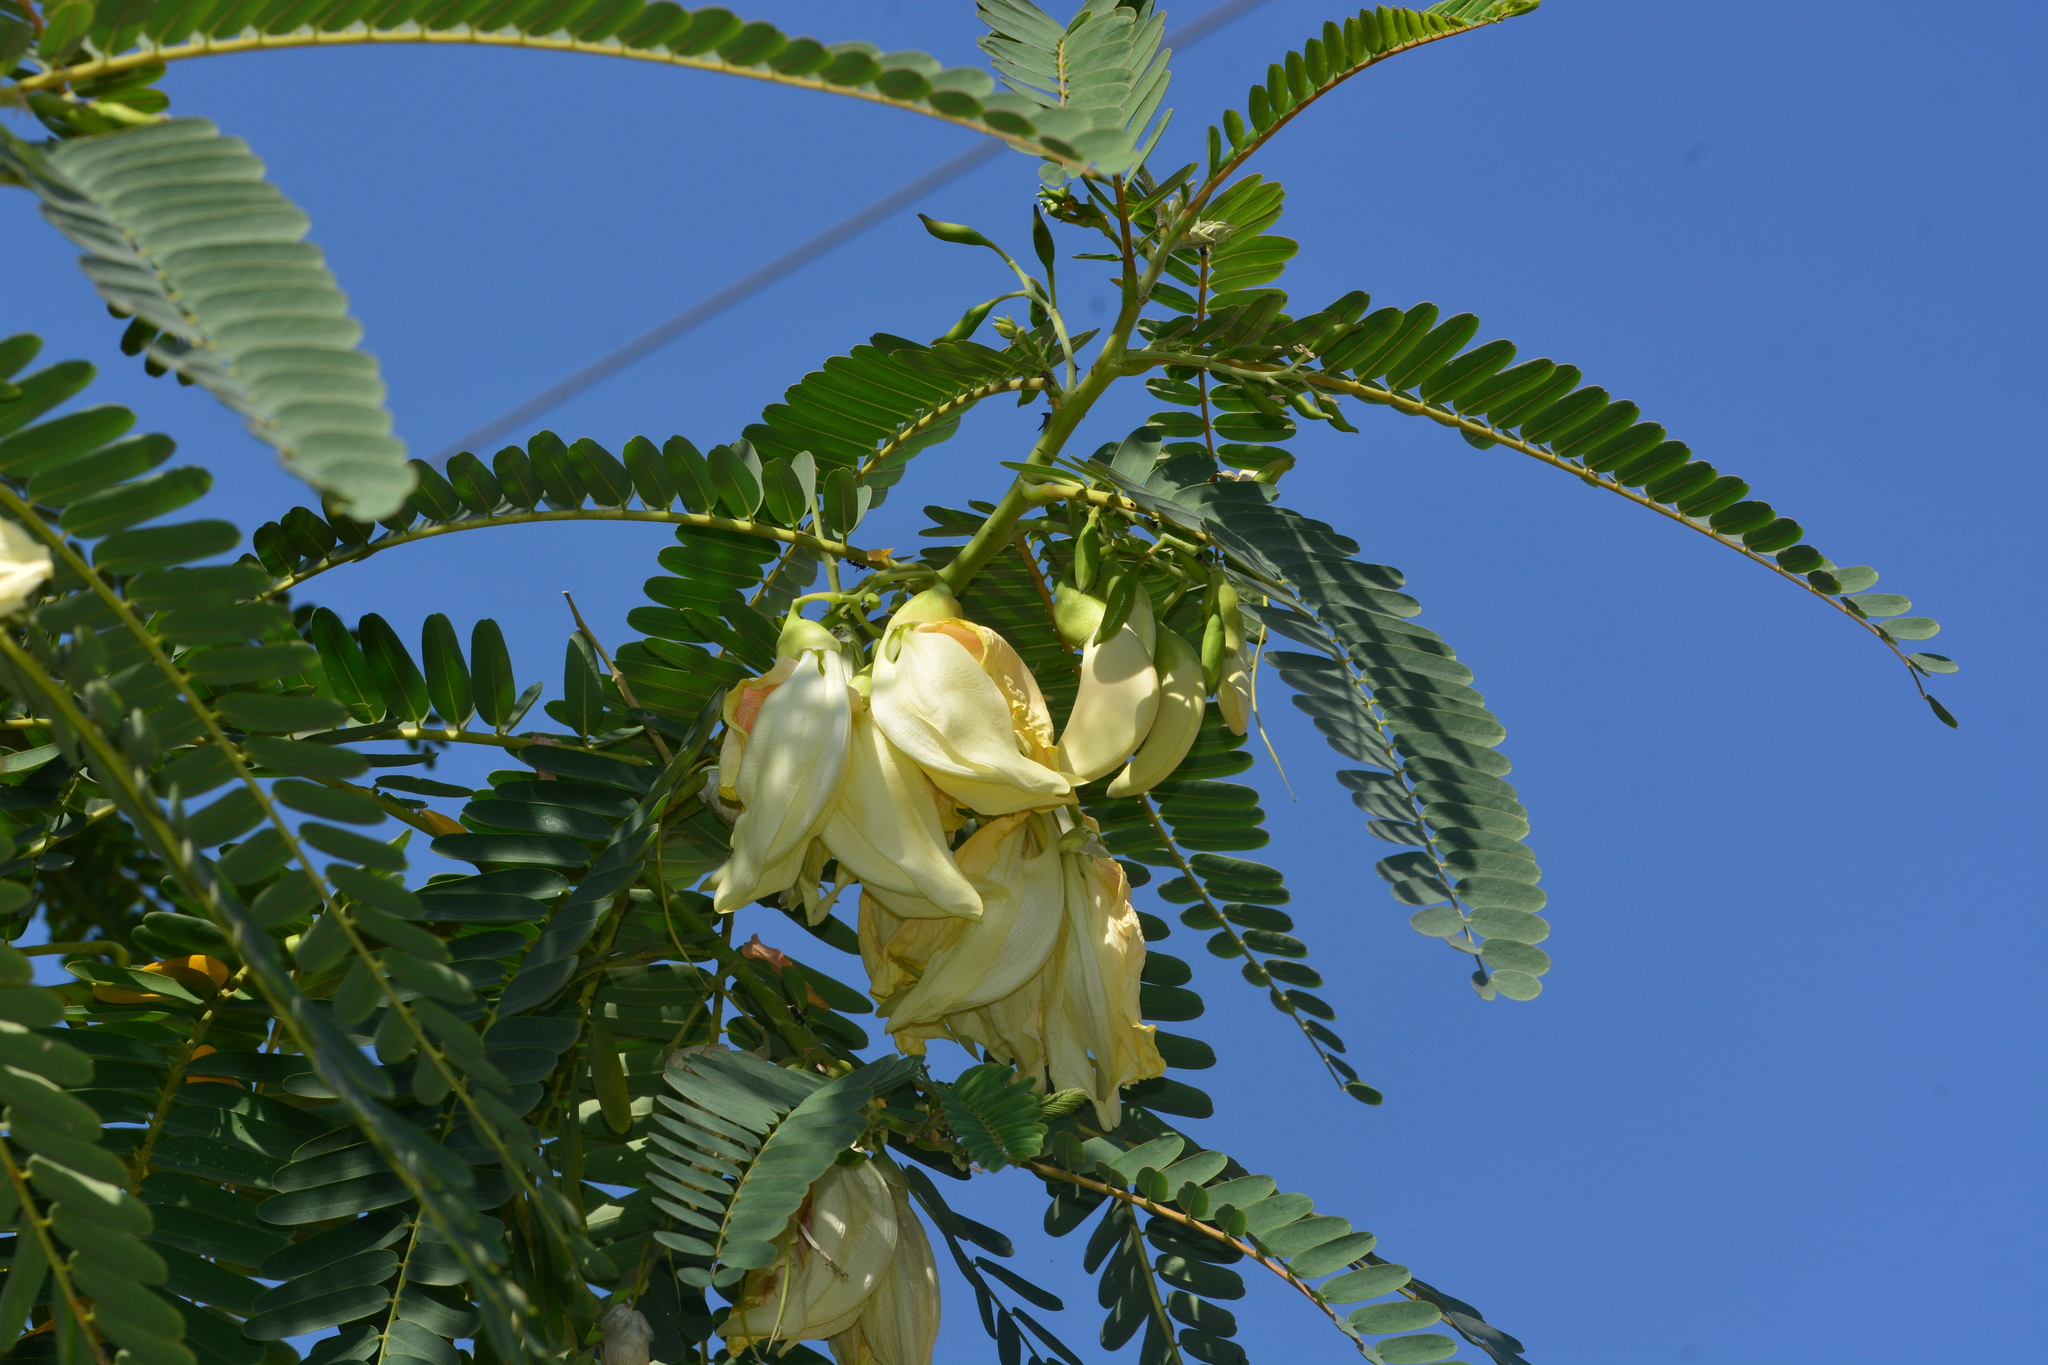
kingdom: Plantae
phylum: Tracheophyta
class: Magnoliopsida
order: Fabales
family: Fabaceae
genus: Sesbania
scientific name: Sesbania grandiflora
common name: Vegetable-hummingbird
